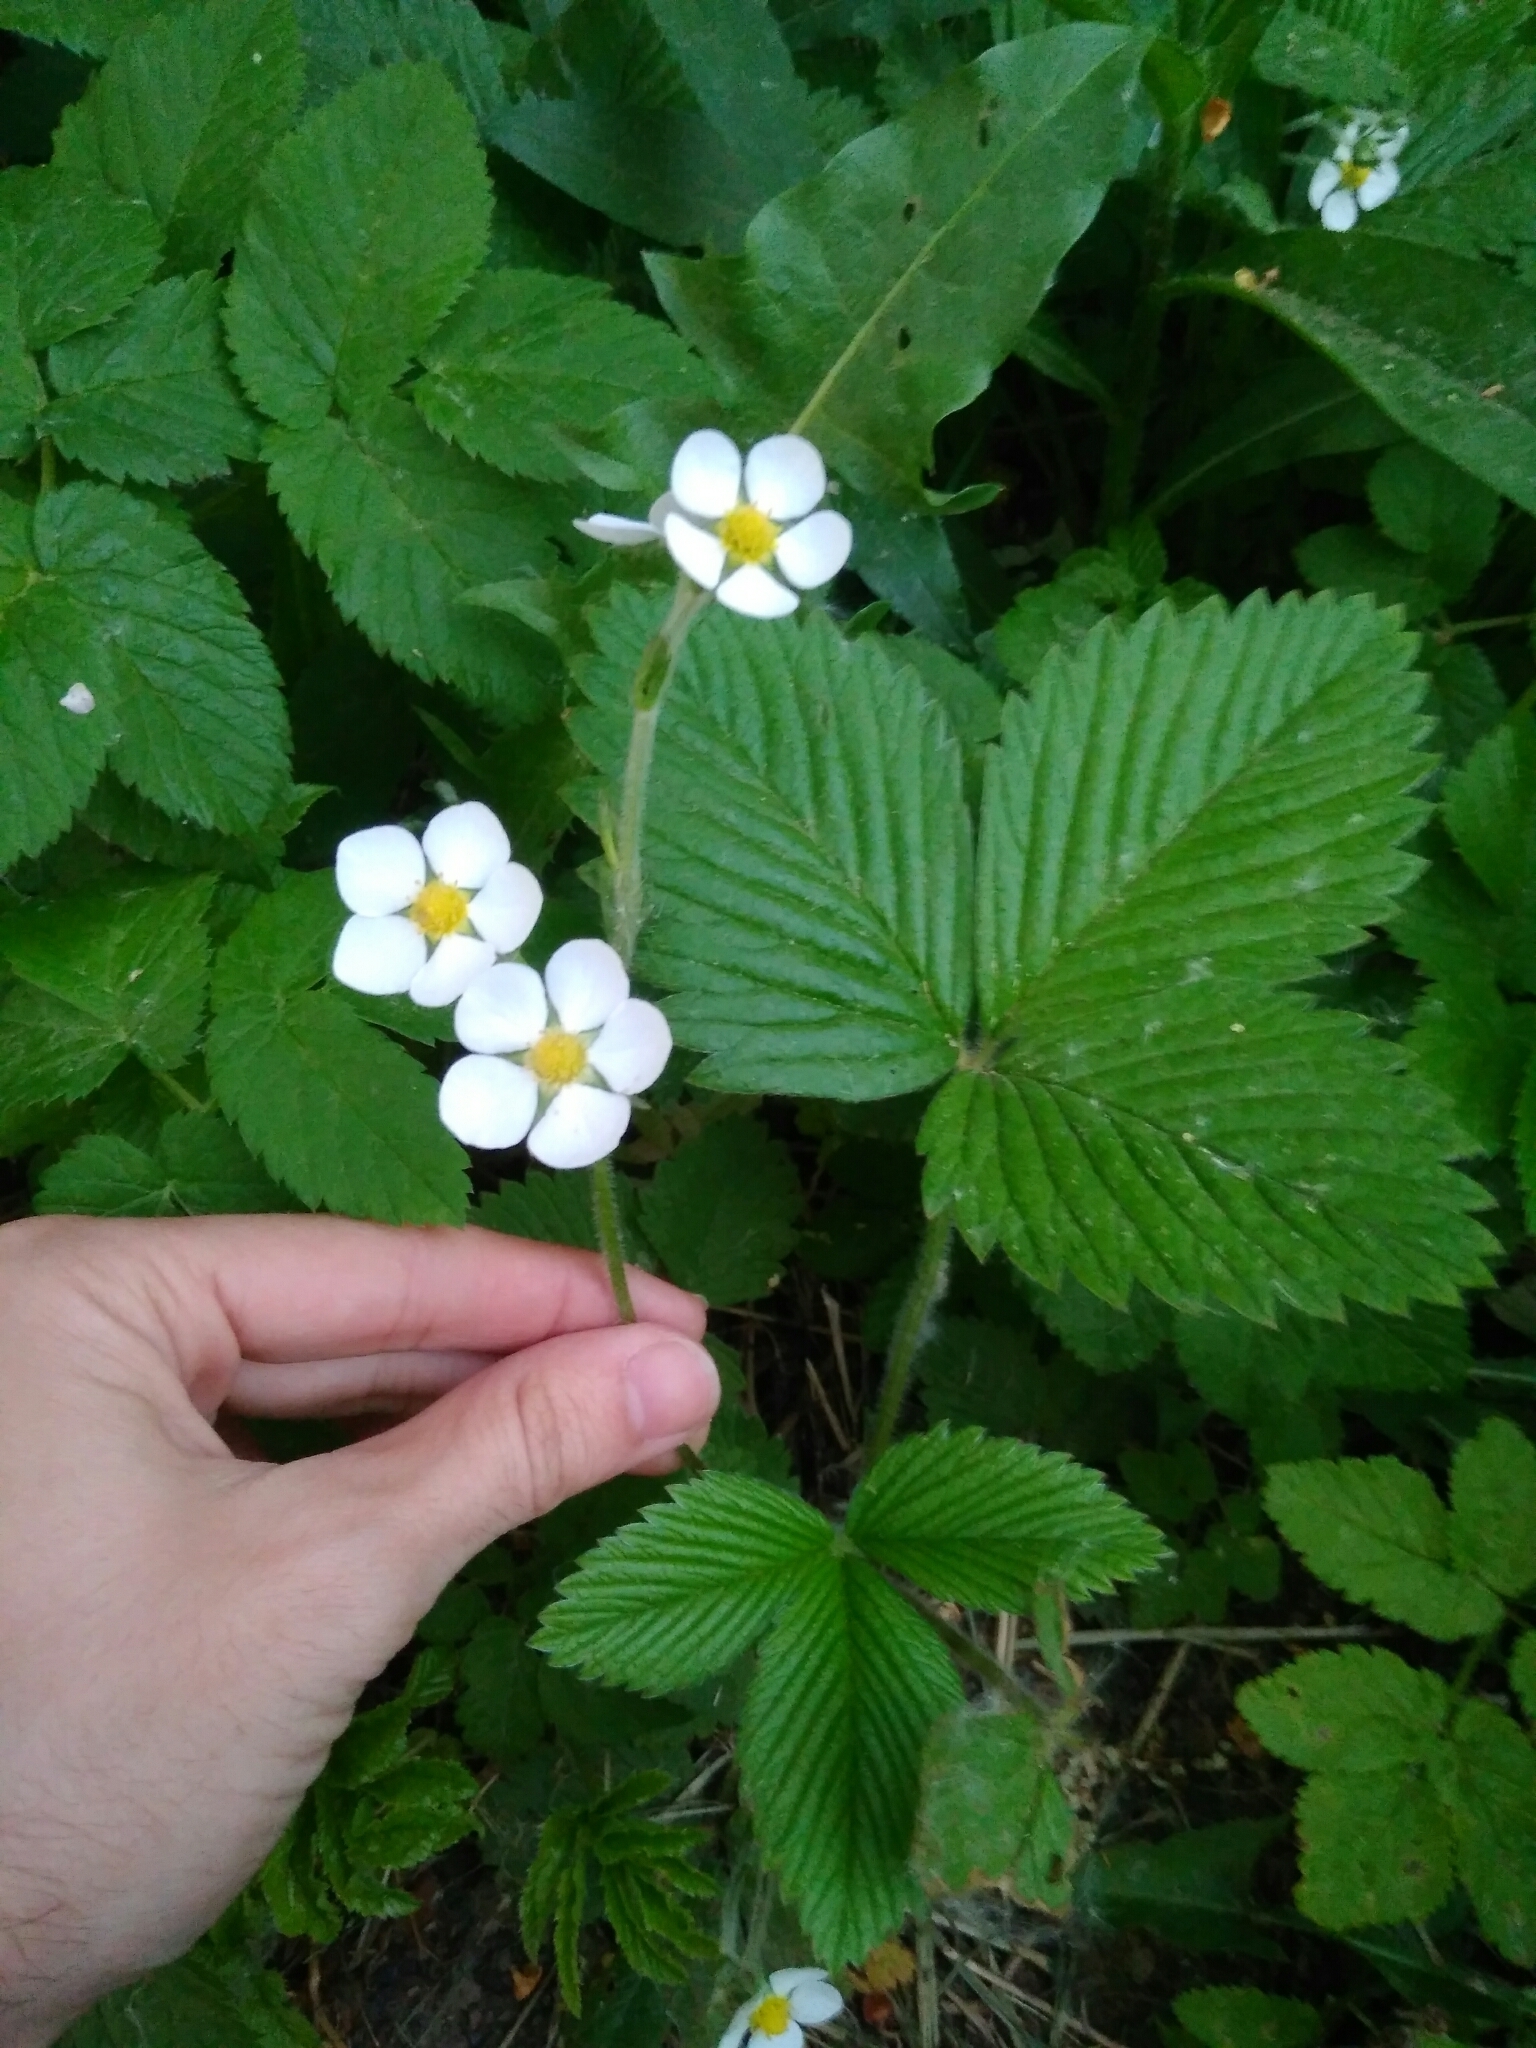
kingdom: Plantae
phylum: Tracheophyta
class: Magnoliopsida
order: Rosales
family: Rosaceae
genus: Fragaria
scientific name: Fragaria moschata
